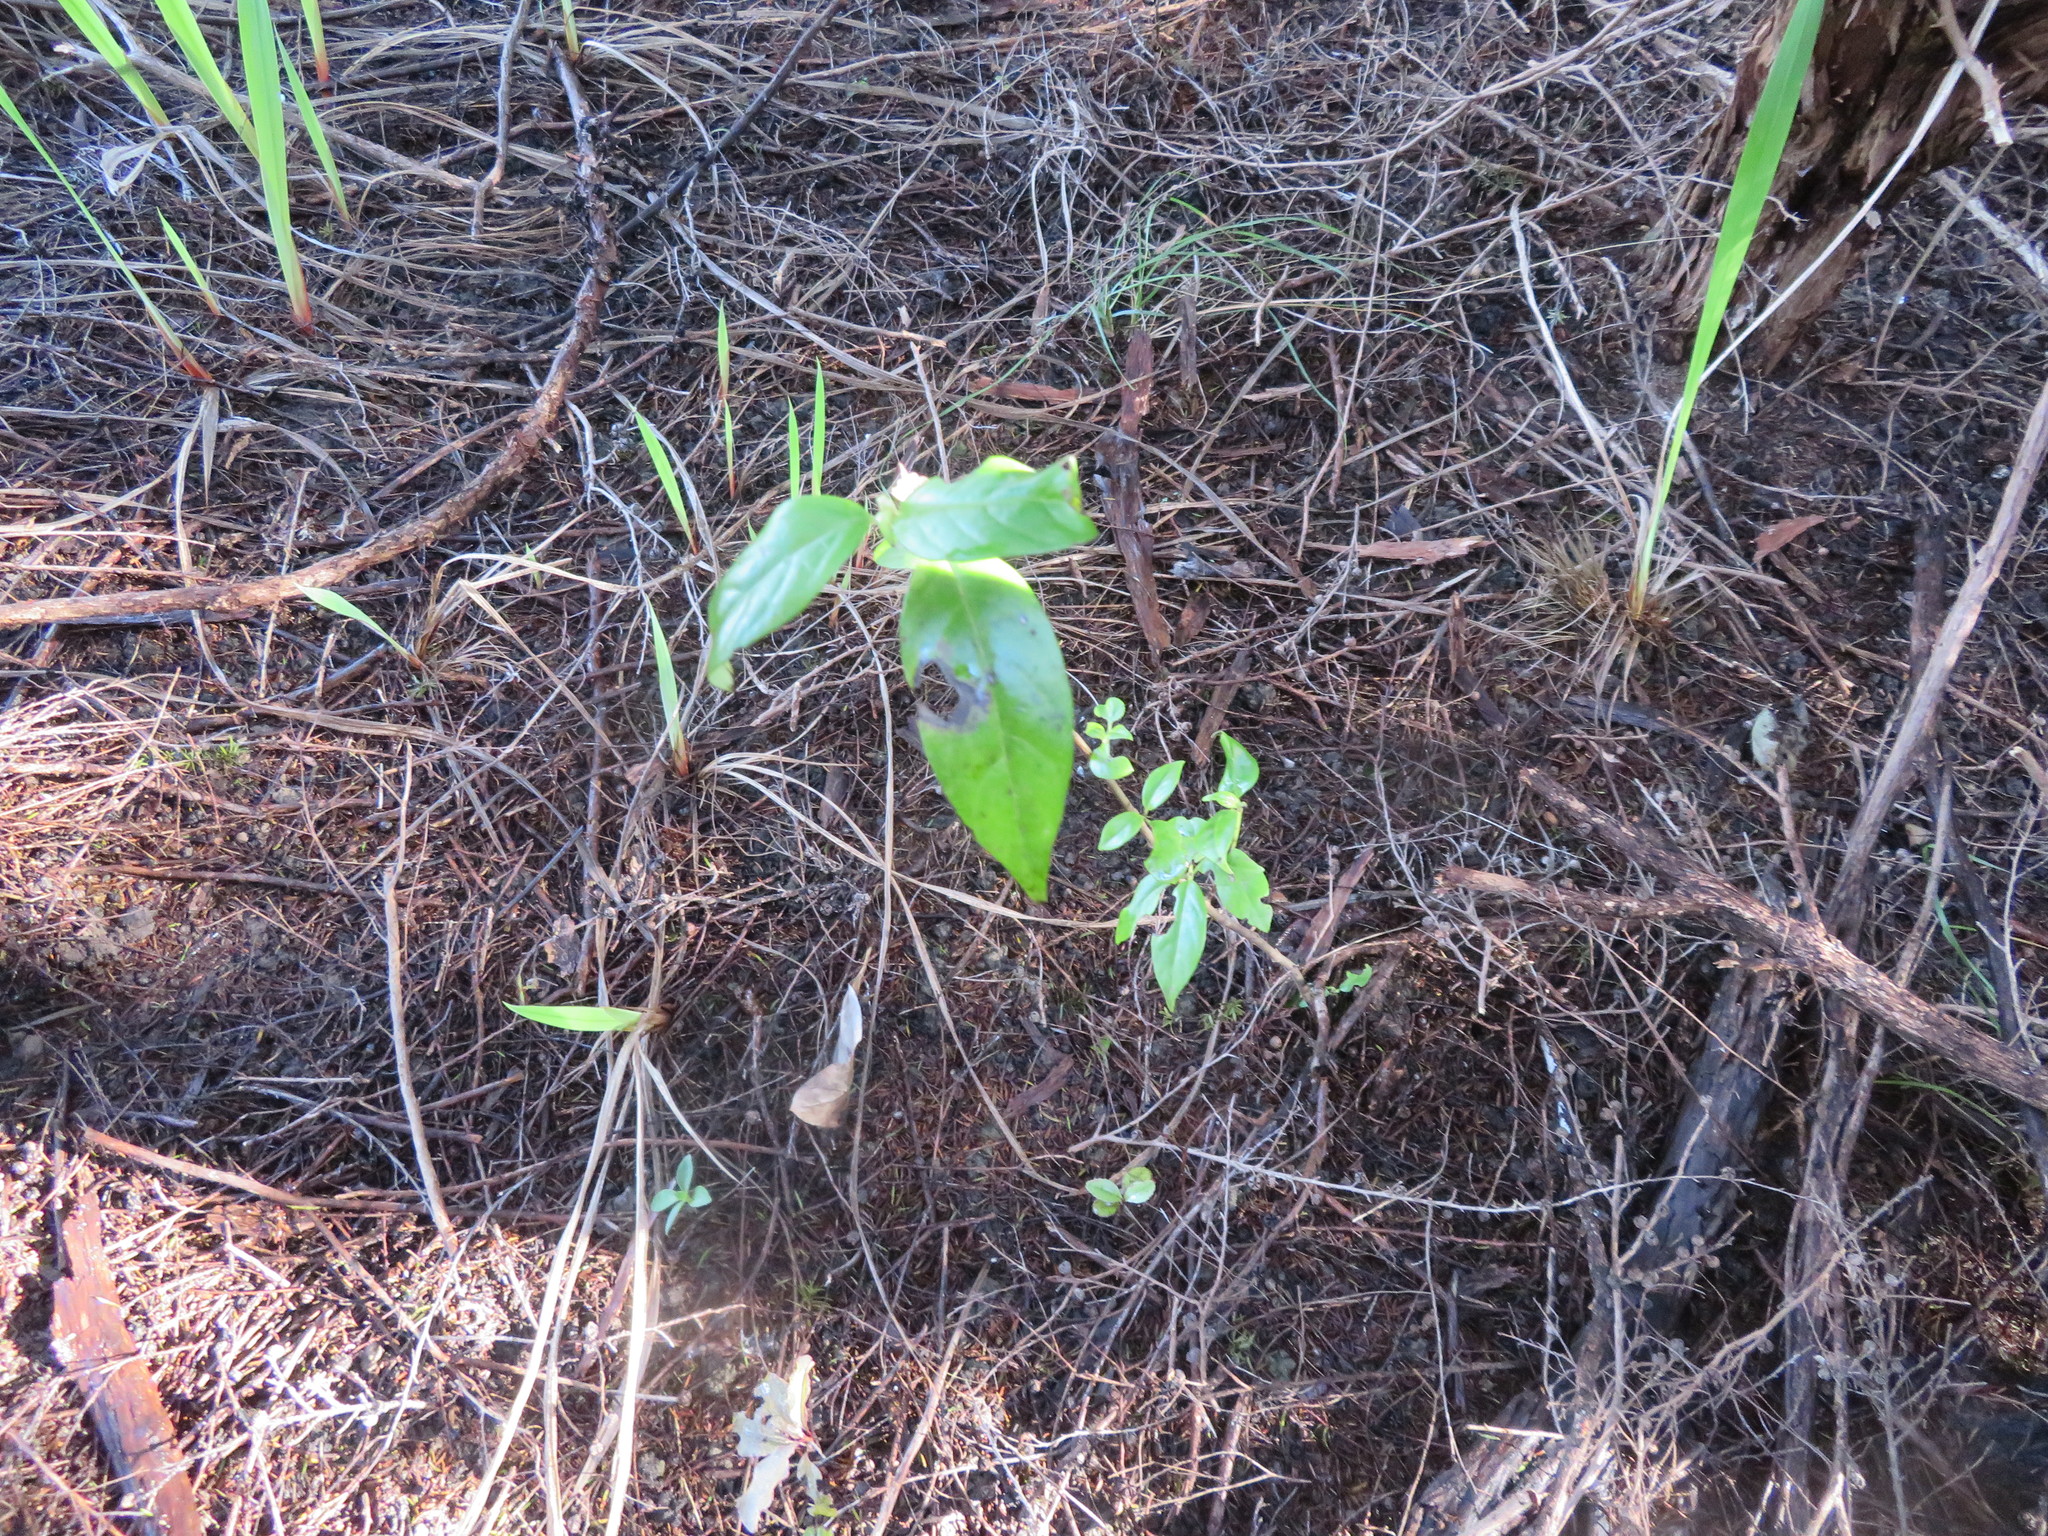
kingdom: Plantae
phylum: Tracheophyta
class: Magnoliopsida
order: Gentianales
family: Loganiaceae
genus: Geniostoma
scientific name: Geniostoma ligustrifolium
